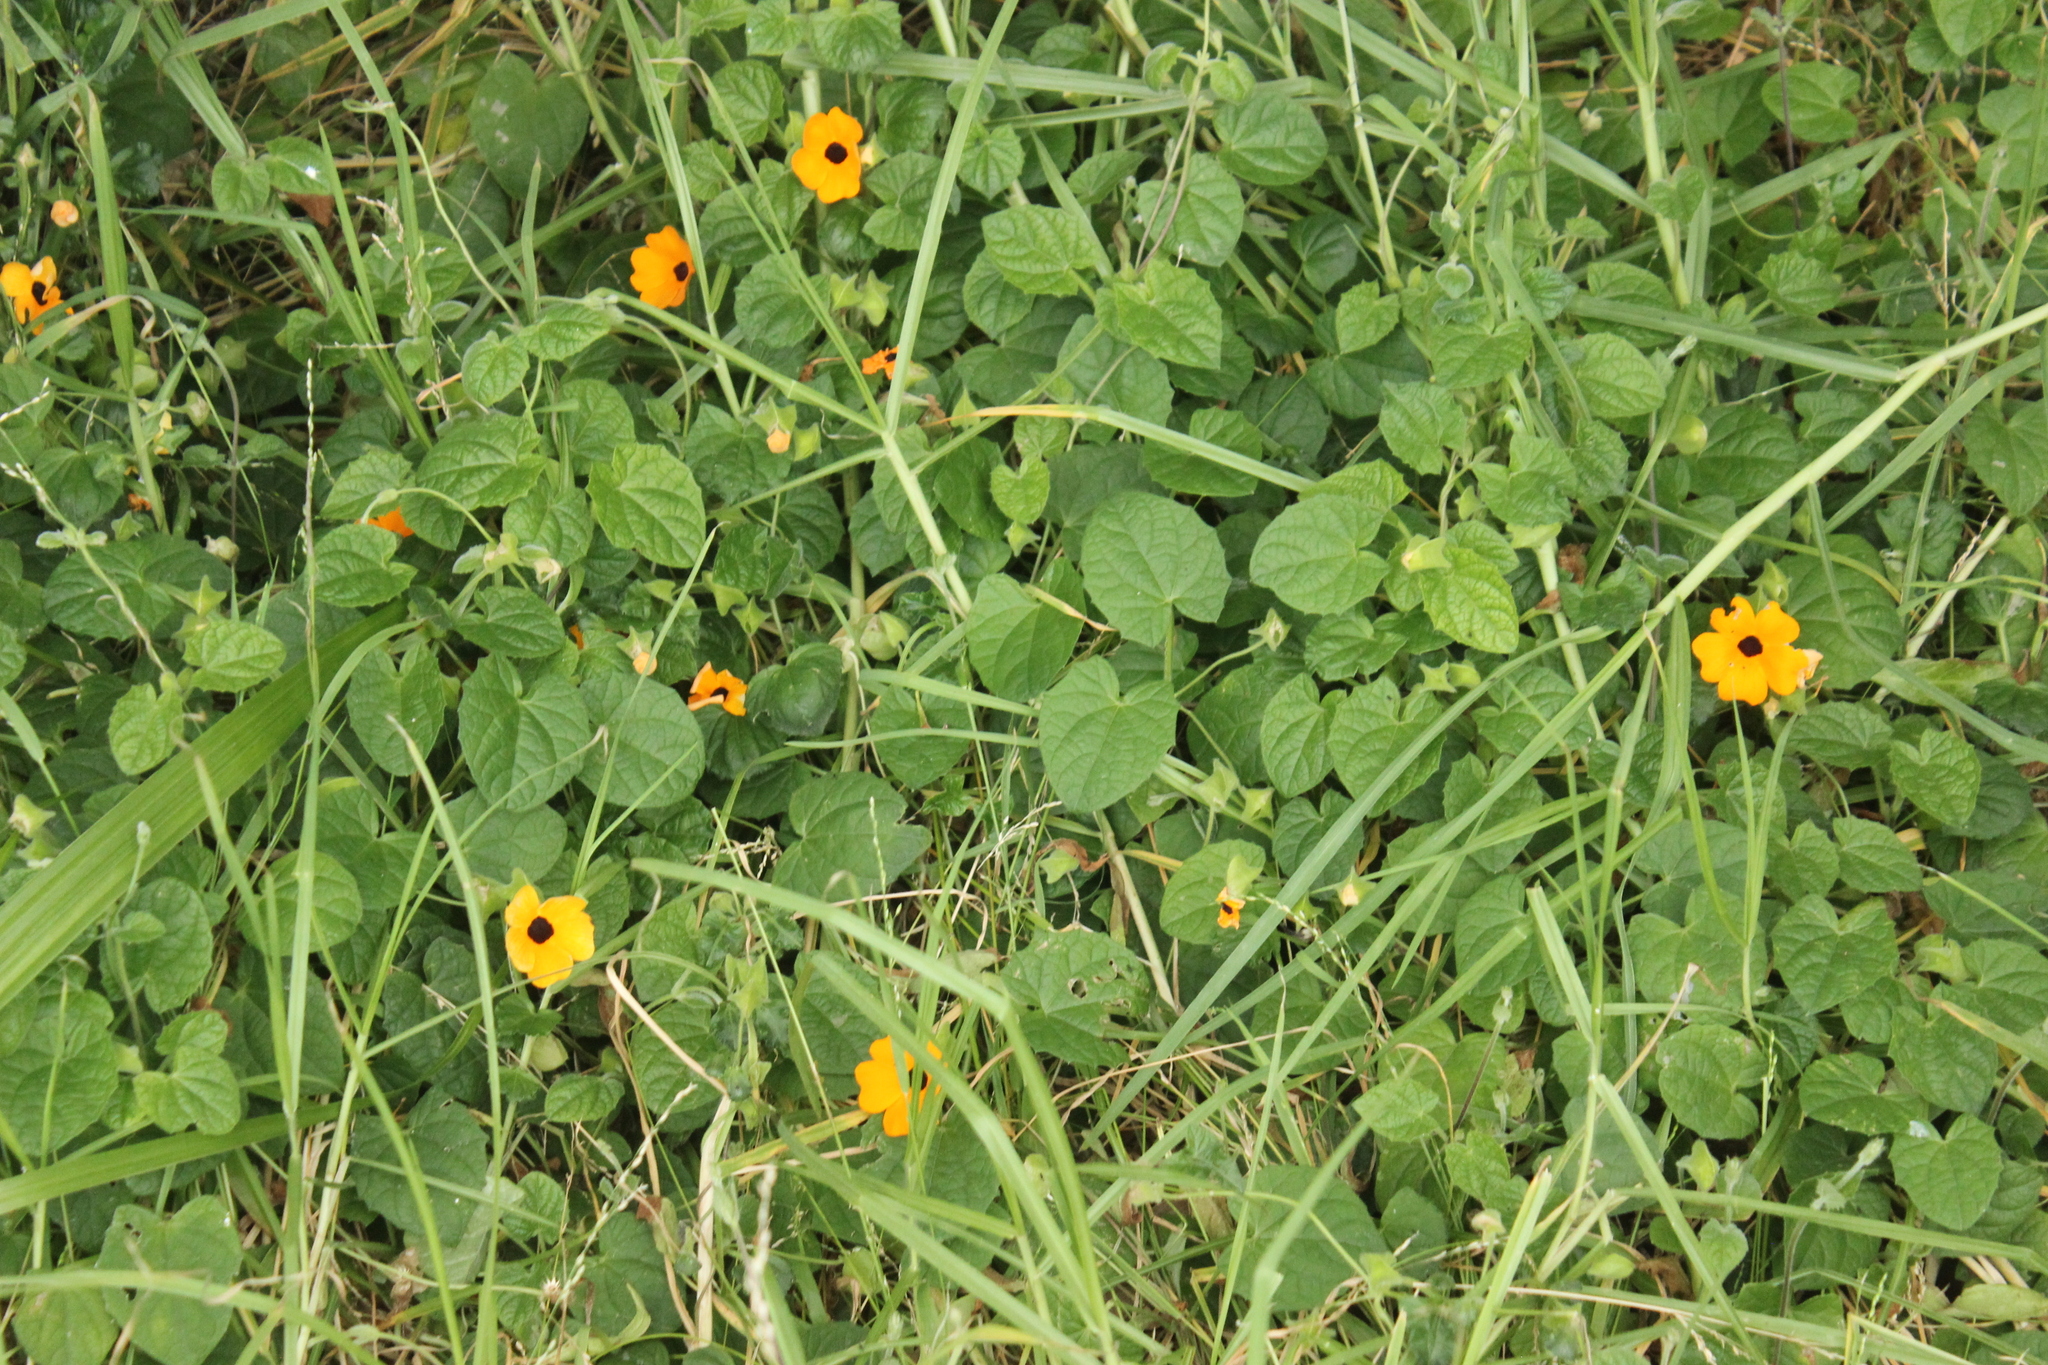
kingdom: Plantae
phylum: Tracheophyta
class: Magnoliopsida
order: Lamiales
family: Acanthaceae
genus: Thunbergia
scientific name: Thunbergia alata
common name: Blackeyed susan vine
